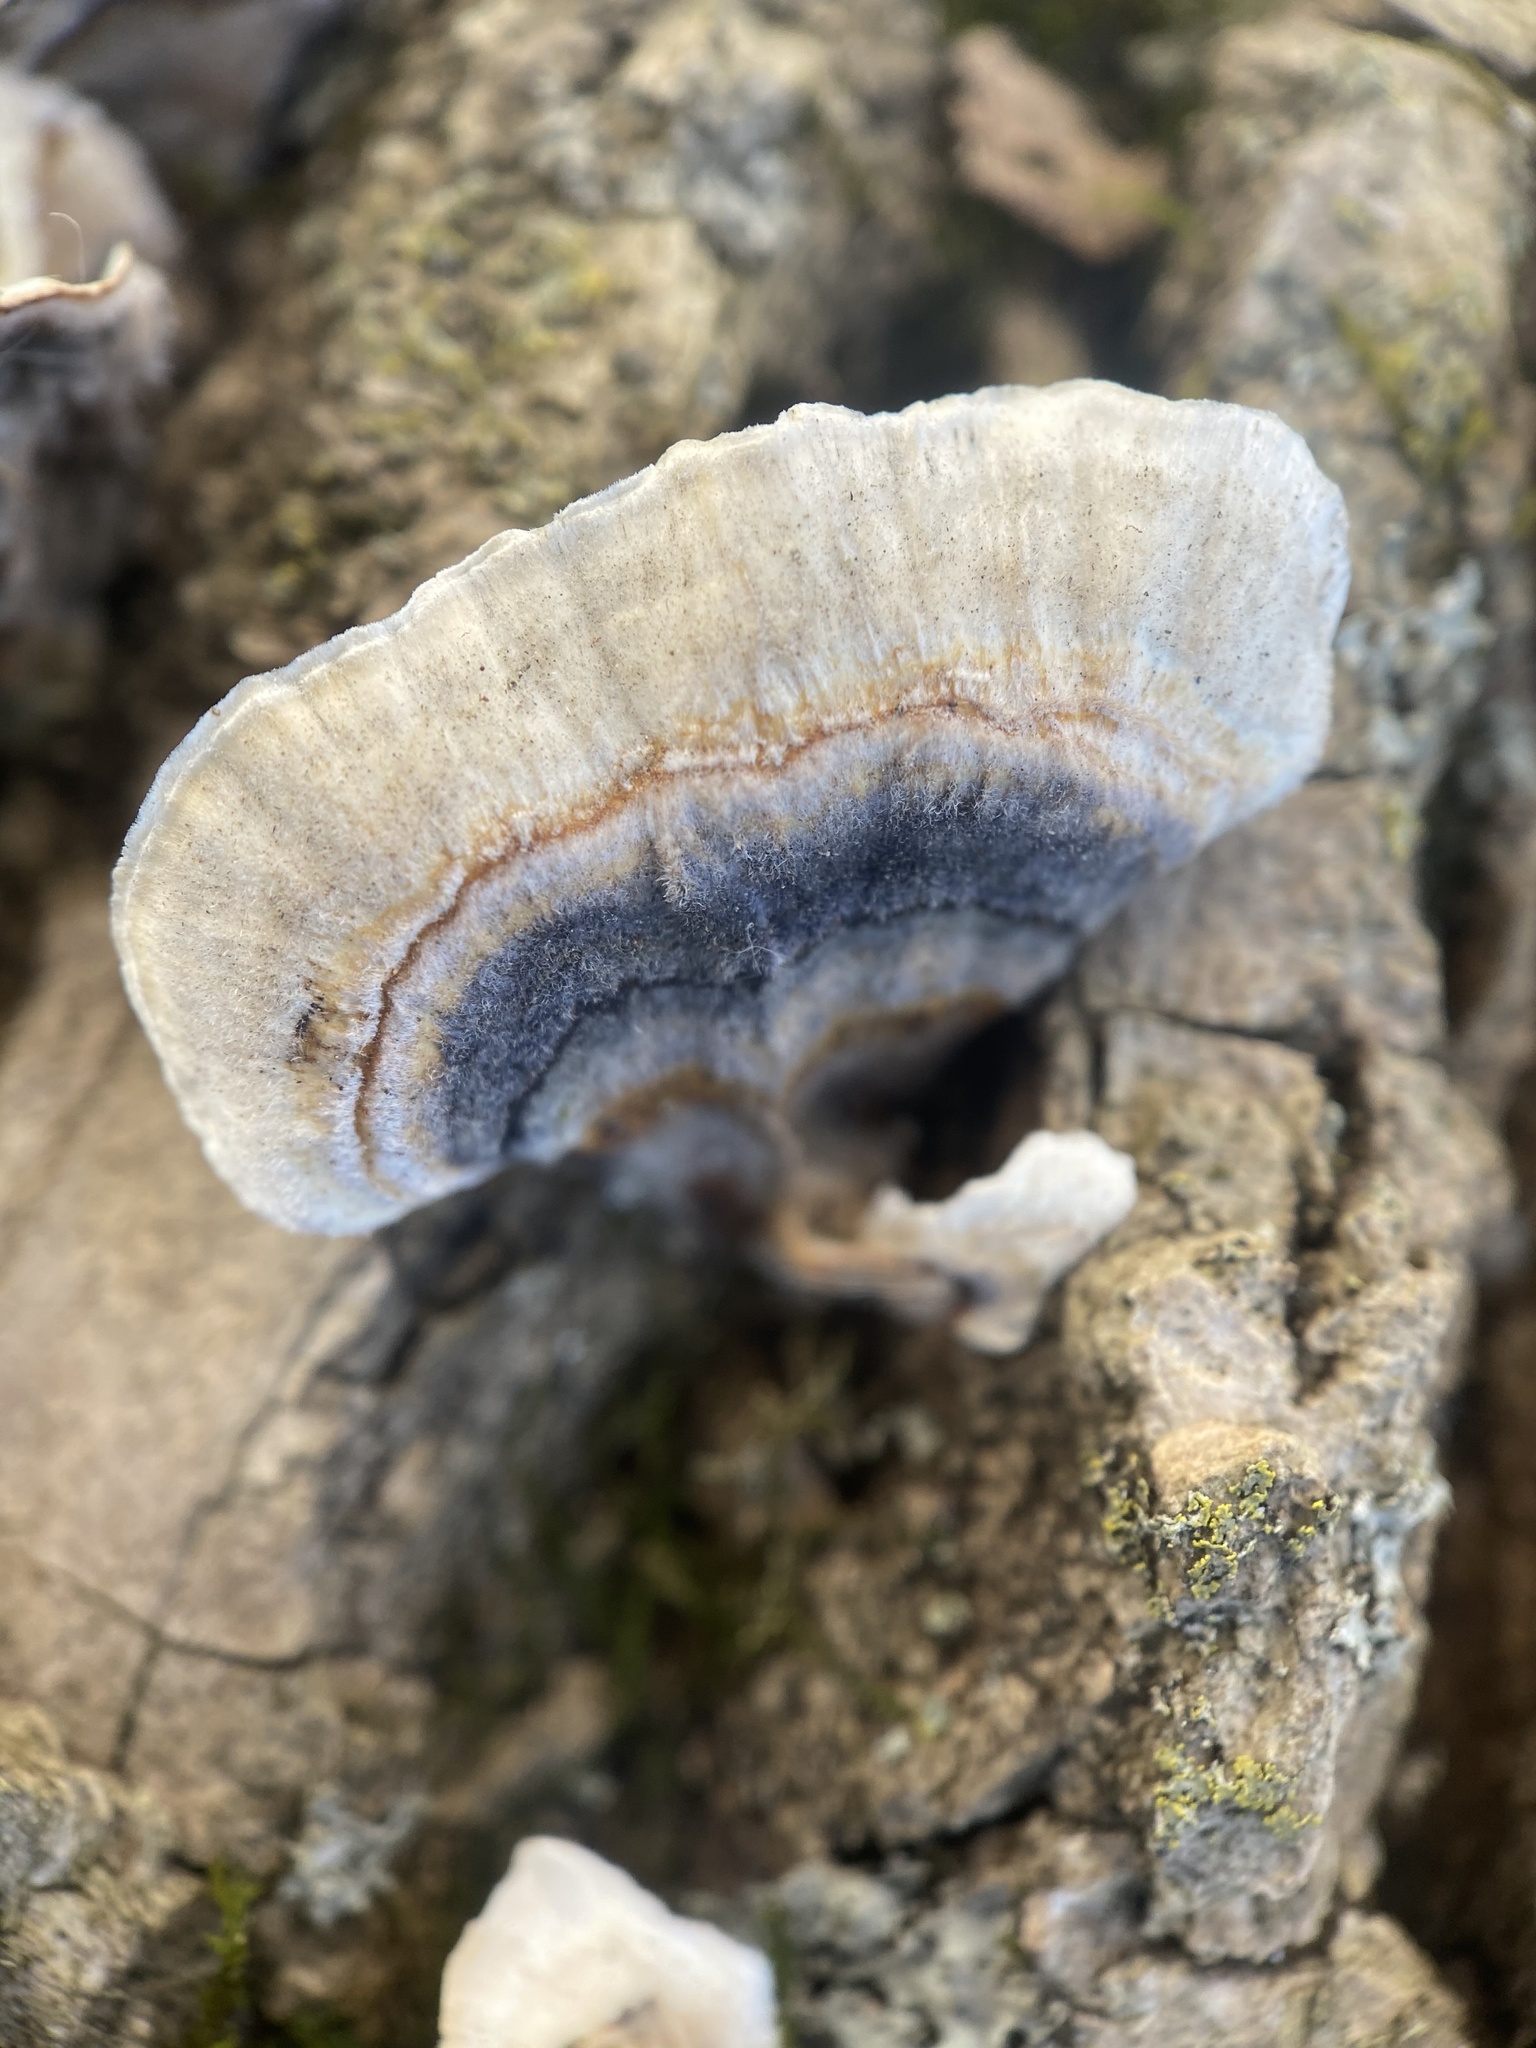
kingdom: Fungi
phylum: Basidiomycota
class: Agaricomycetes
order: Polyporales
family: Polyporaceae
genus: Trametes
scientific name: Trametes versicolor
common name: Turkeytail
